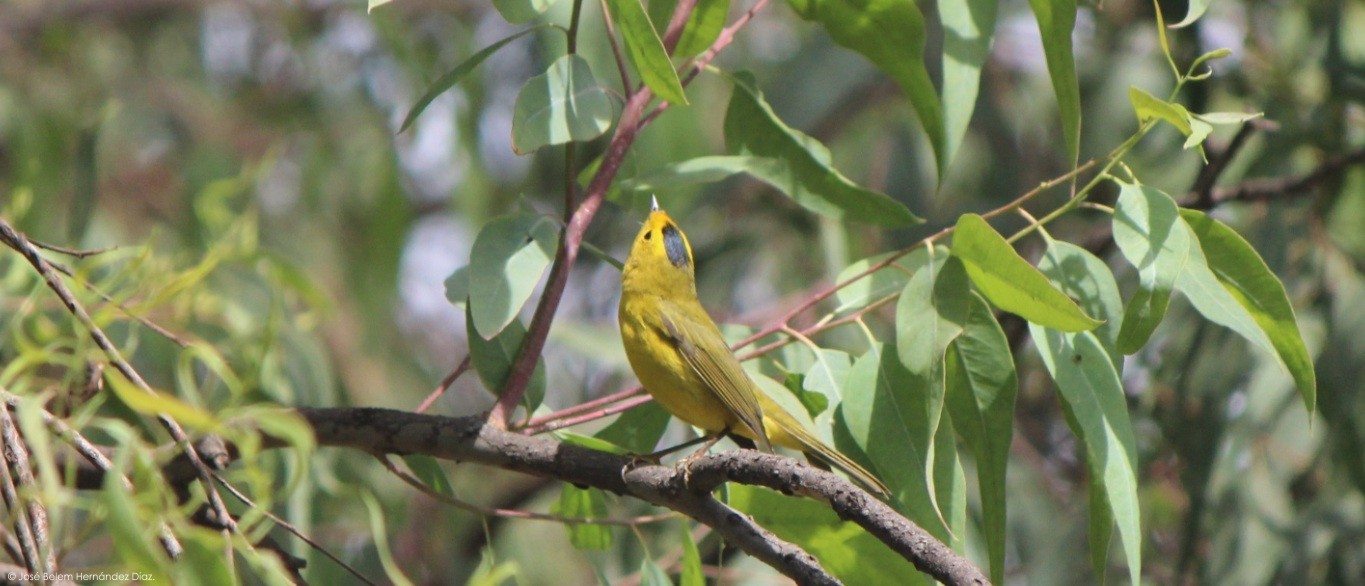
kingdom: Animalia
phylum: Chordata
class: Aves
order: Passeriformes
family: Parulidae
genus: Cardellina
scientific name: Cardellina pusilla
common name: Wilson's warbler
